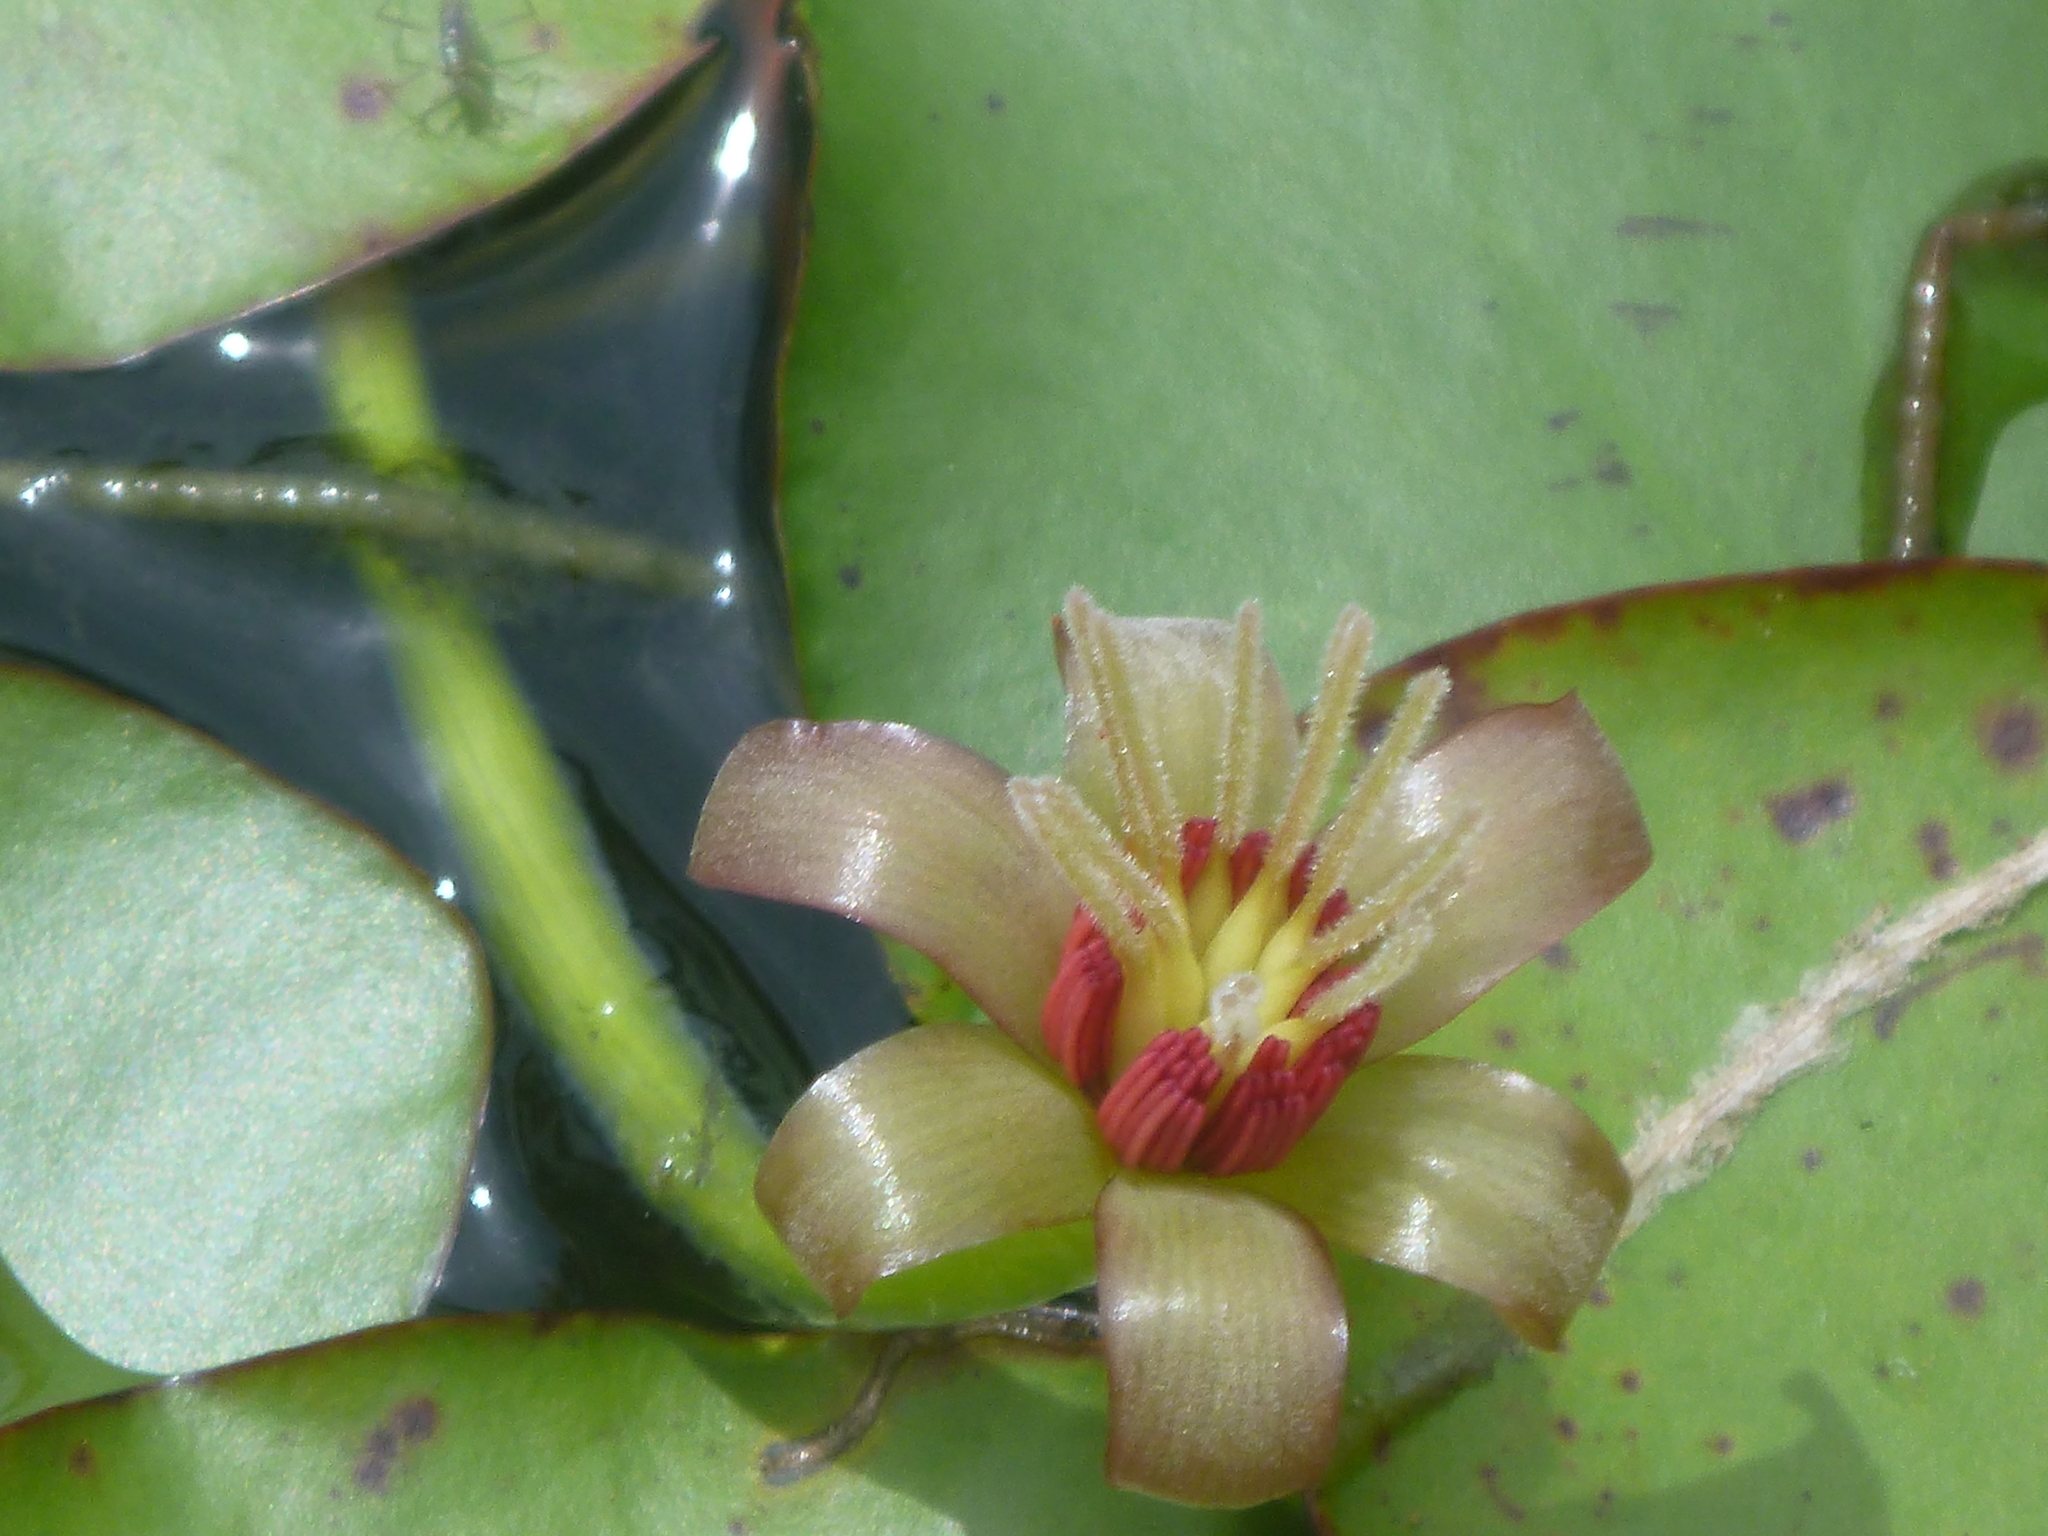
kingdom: Plantae
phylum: Tracheophyta
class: Magnoliopsida
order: Nymphaeales
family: Cabombaceae
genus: Brasenia
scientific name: Brasenia schreberi
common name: Water-shield
